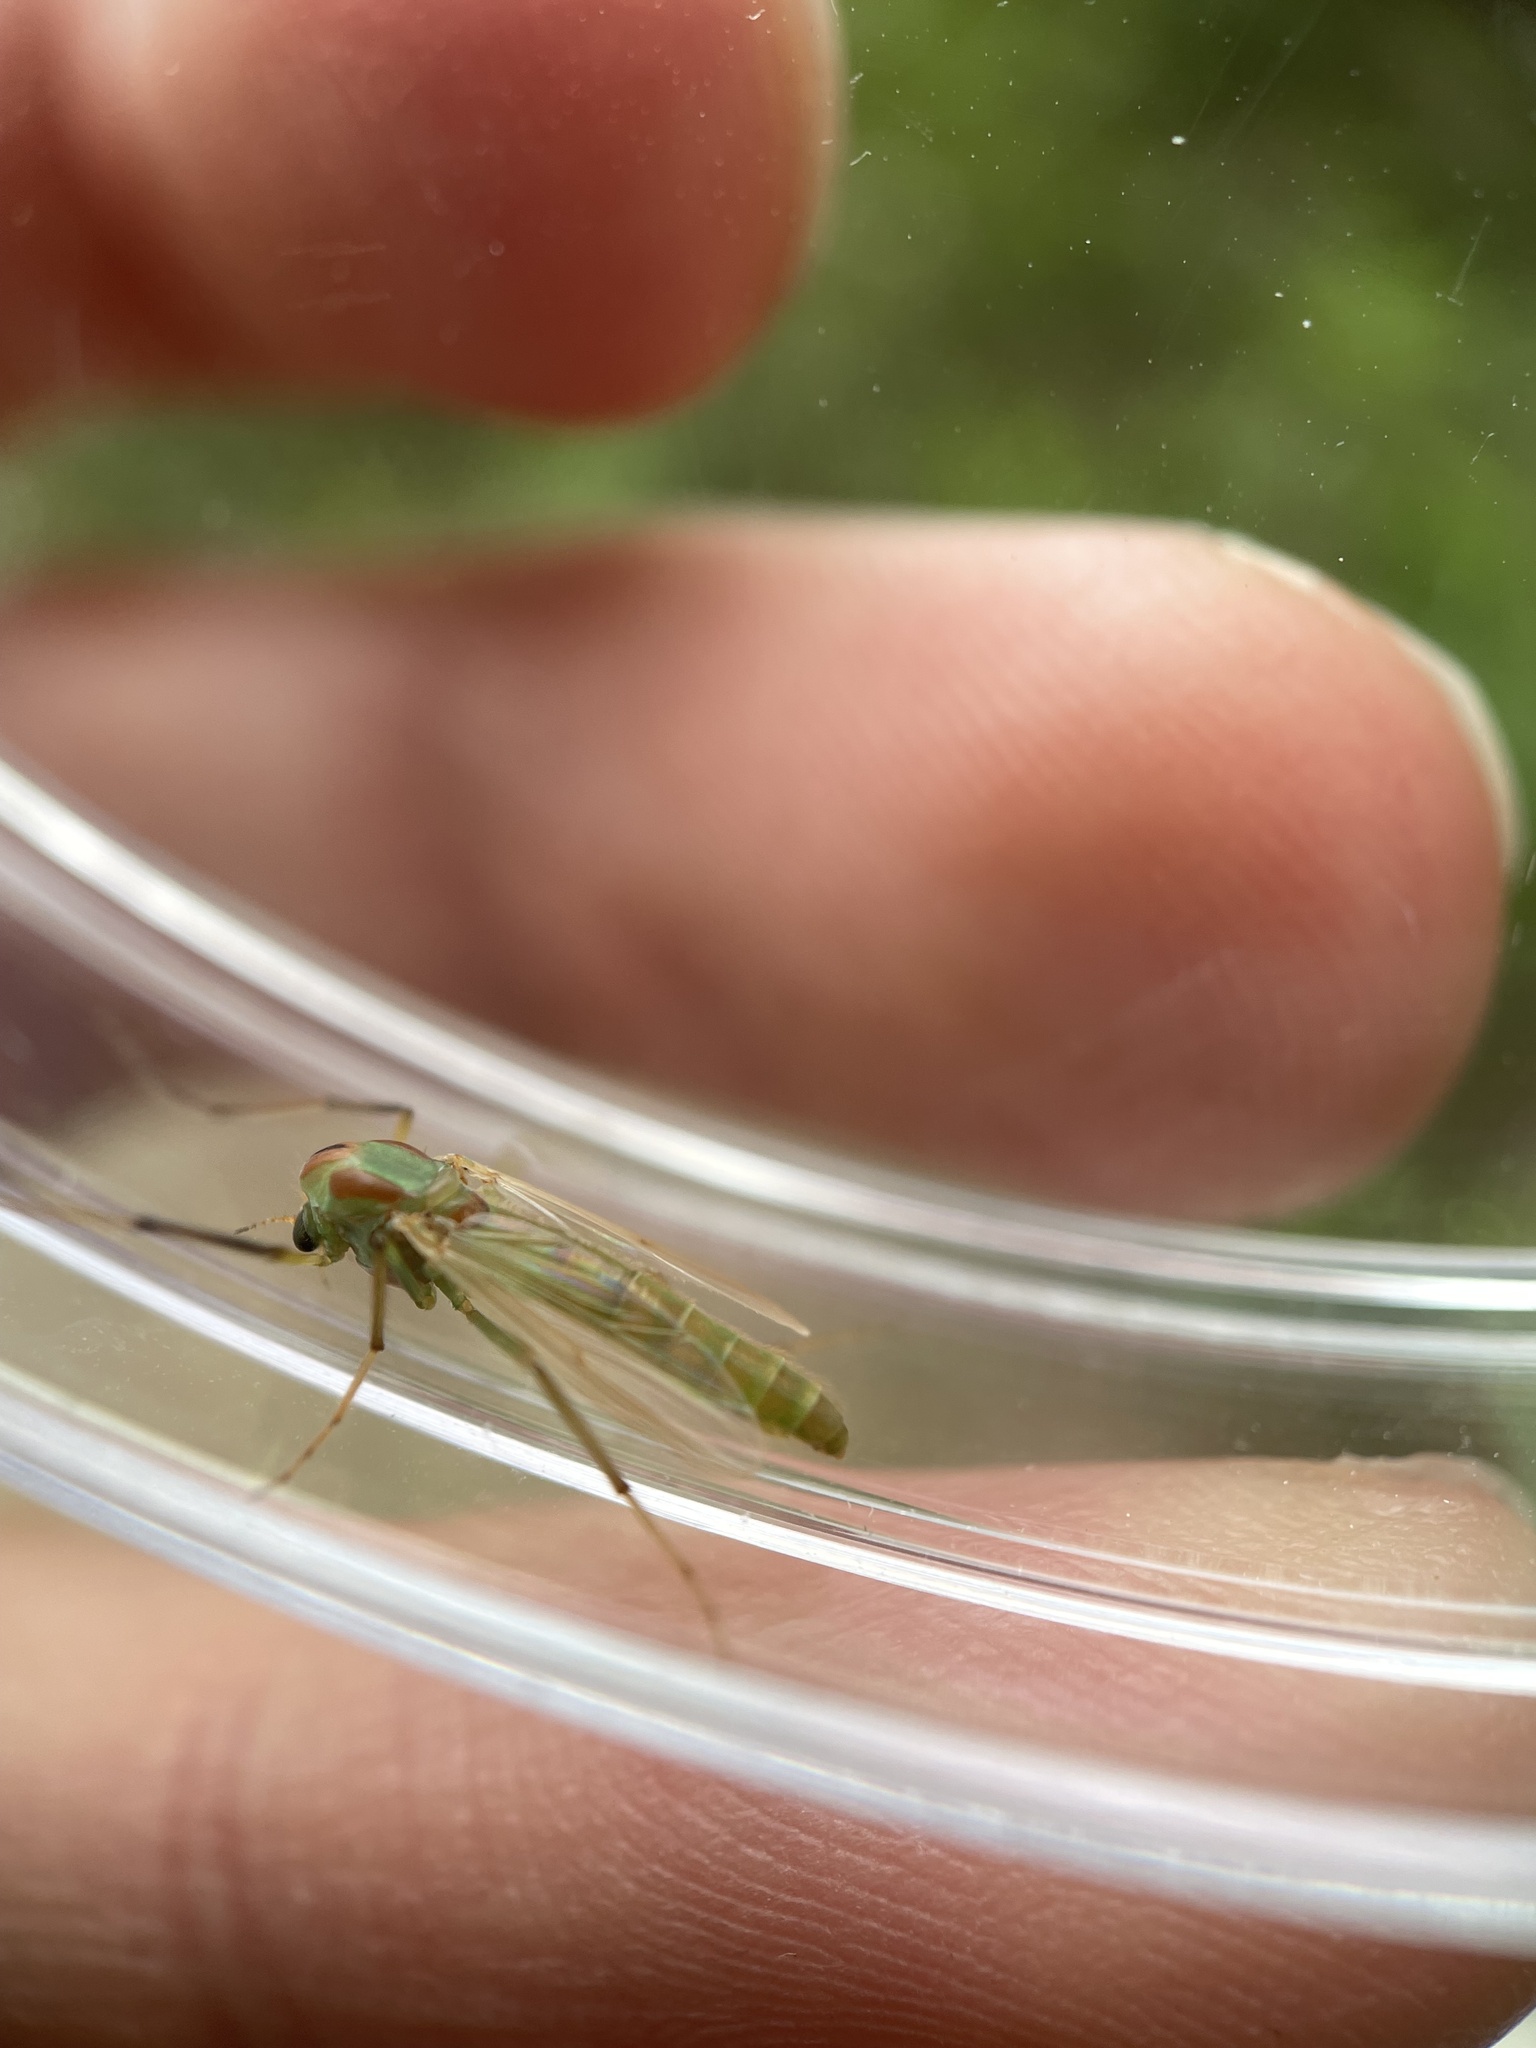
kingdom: Animalia
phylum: Arthropoda
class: Insecta
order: Diptera
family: Chironomidae
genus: Axarus
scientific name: Axarus
